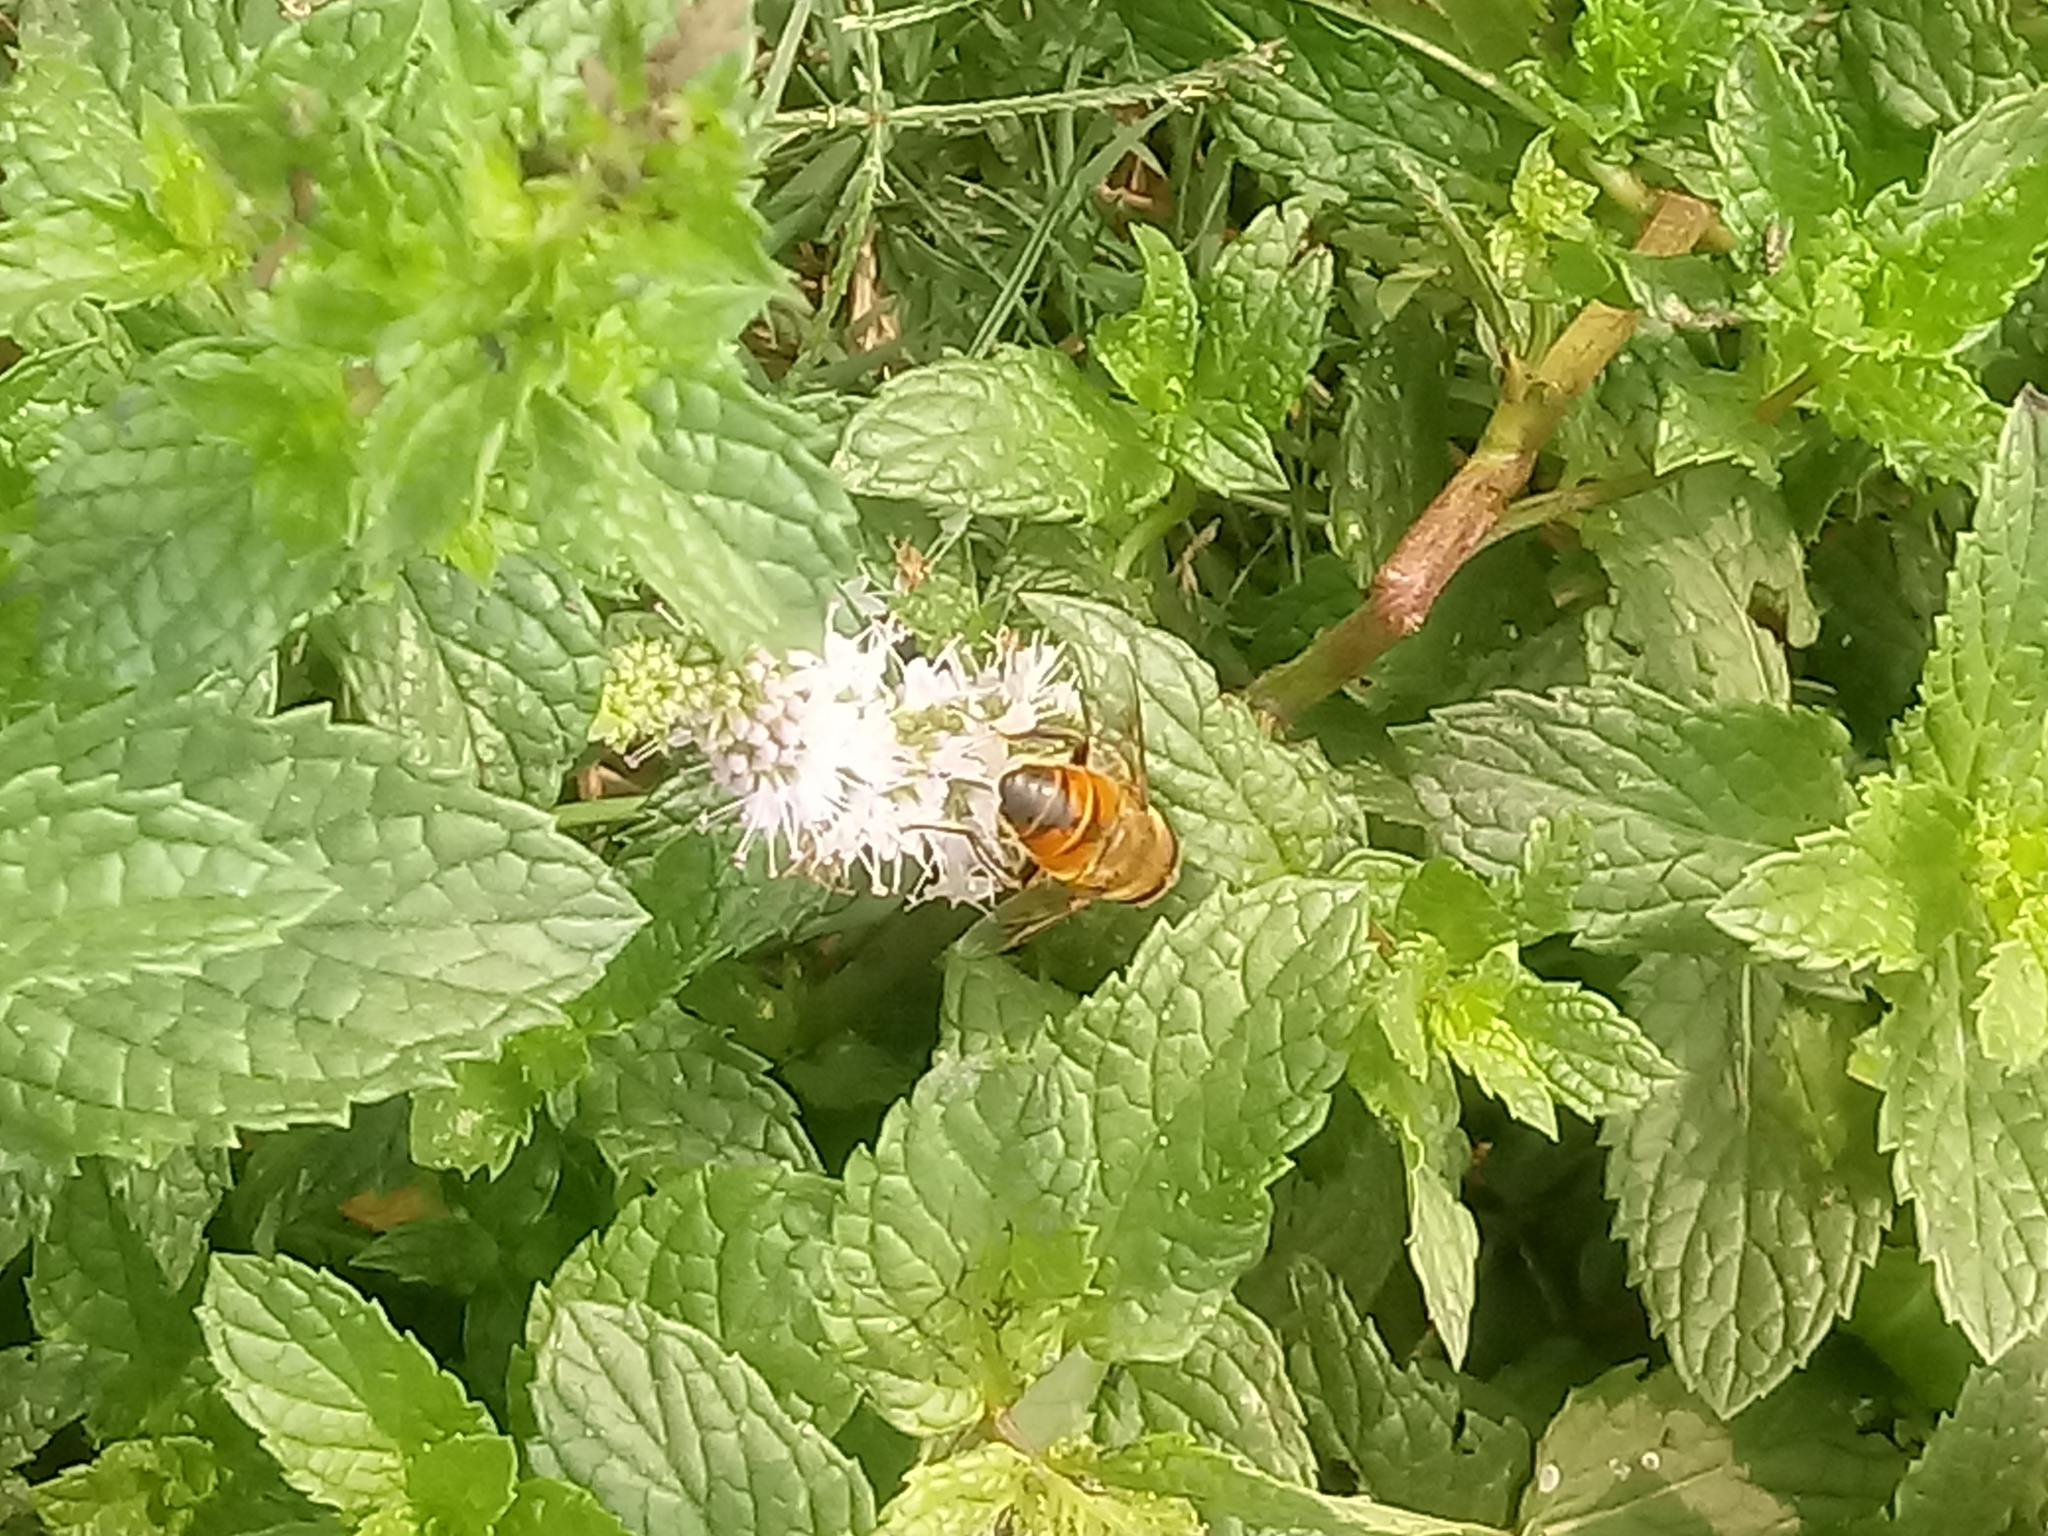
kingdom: Animalia
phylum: Arthropoda
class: Insecta
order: Diptera
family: Syrphidae
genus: Eristalis
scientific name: Eristalis tenax
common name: Drone fly
